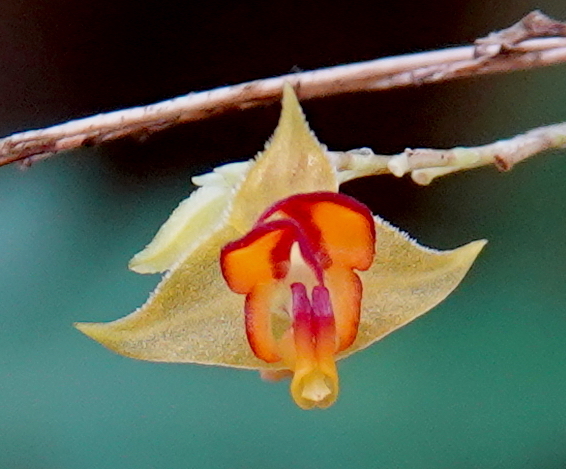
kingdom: Plantae
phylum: Tracheophyta
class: Liliopsida
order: Asparagales
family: Orchidaceae
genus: Lepanthes
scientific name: Lepanthes tachirensis
